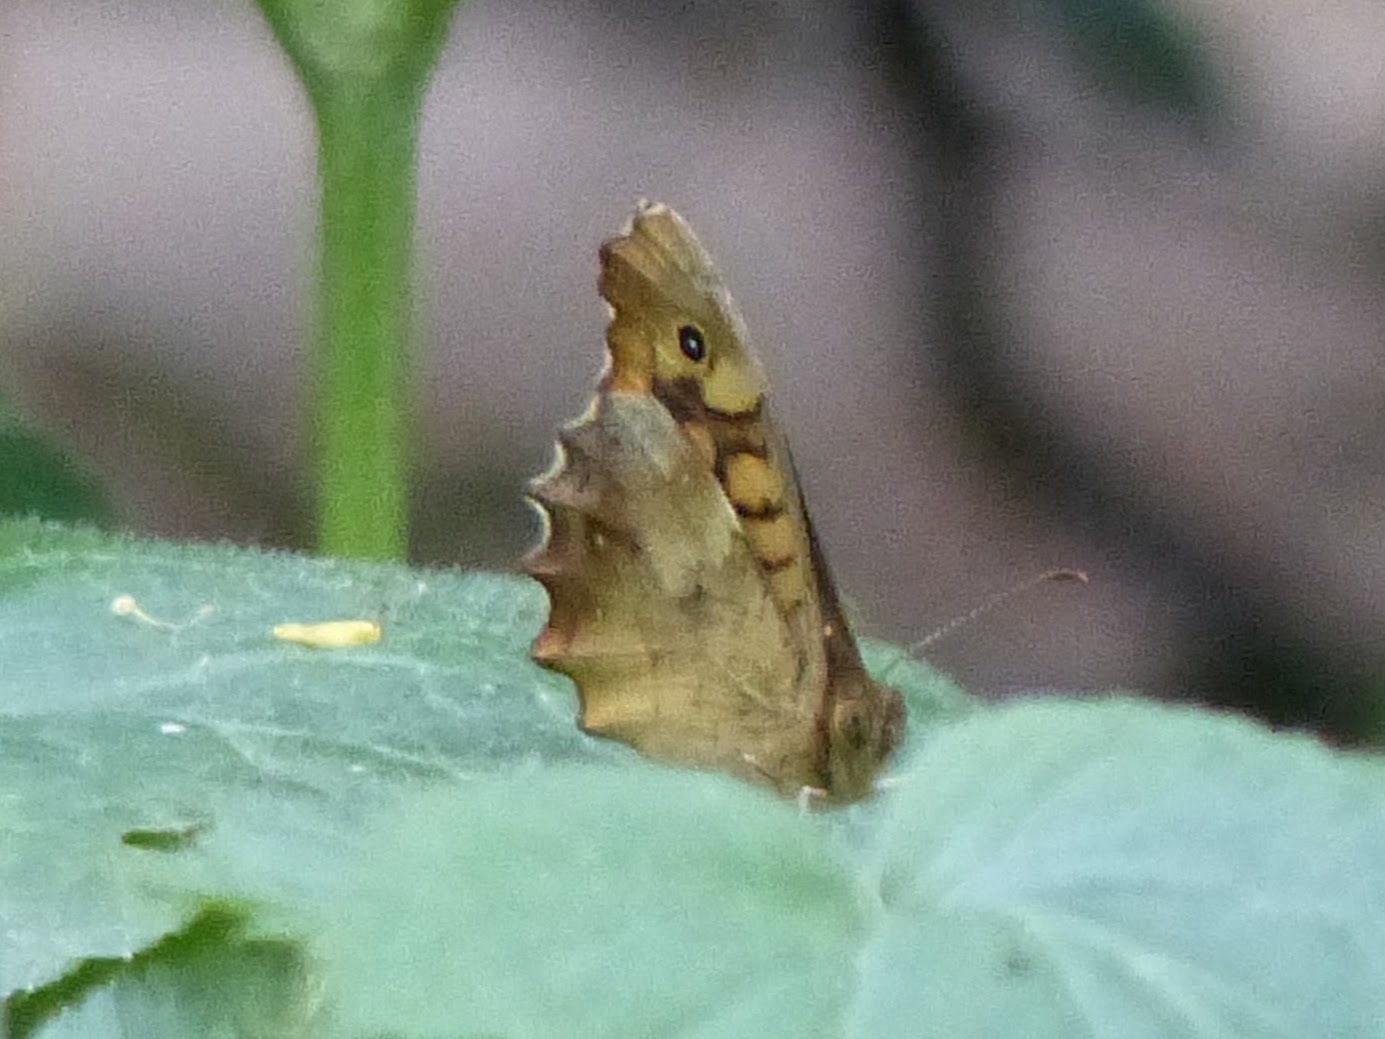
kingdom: Animalia
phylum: Arthropoda
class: Insecta
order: Lepidoptera
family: Nymphalidae
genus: Pararge
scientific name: Pararge aegeria
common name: Speckled wood
